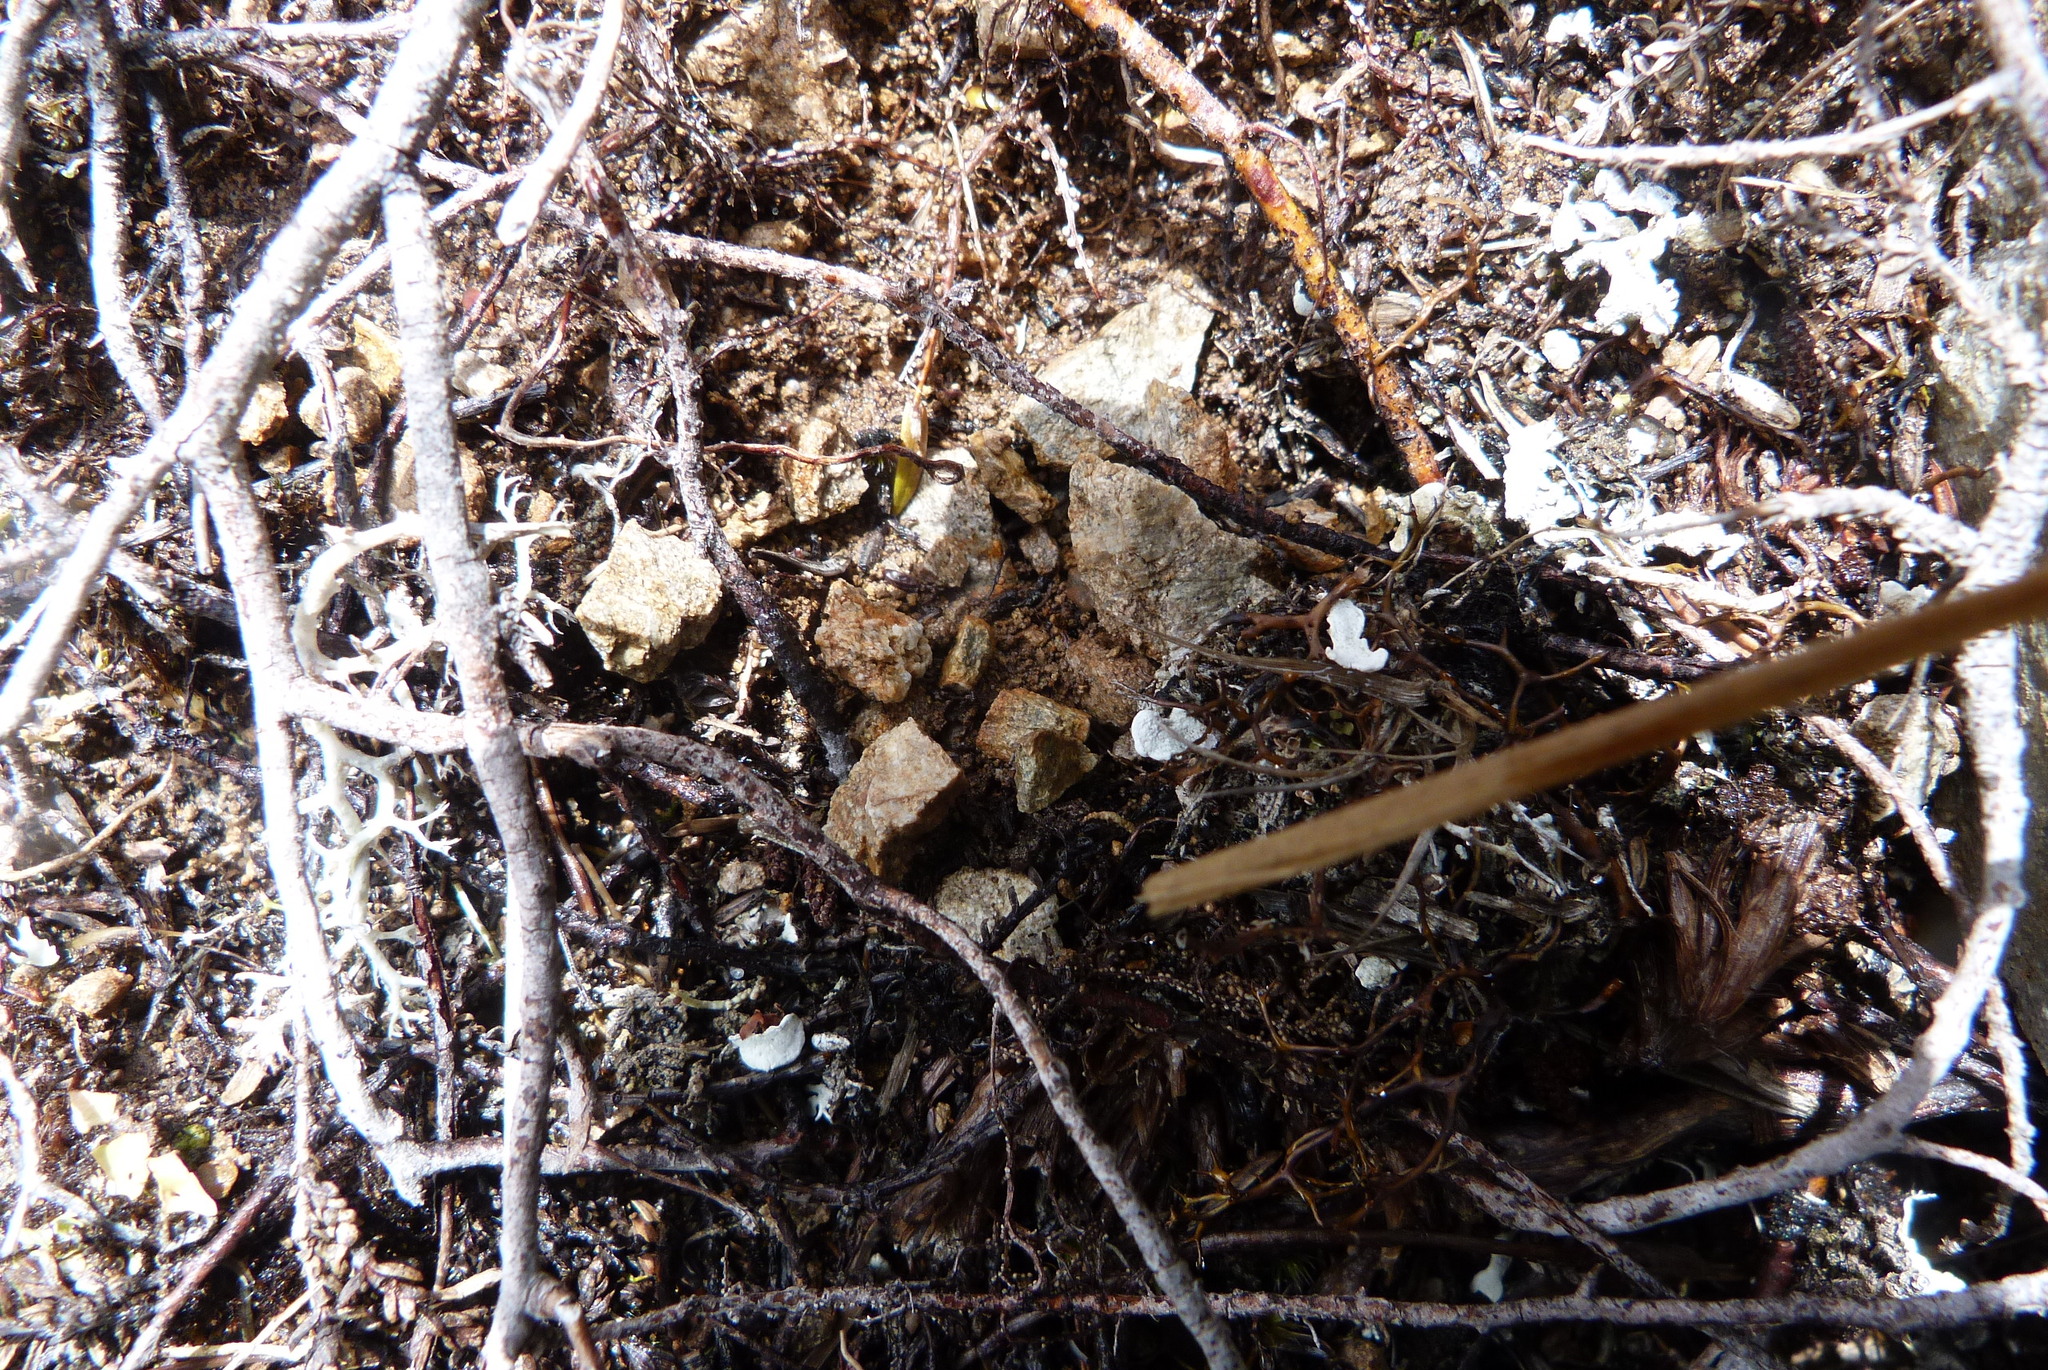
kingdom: Plantae
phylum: Tracheophyta
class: Pinopsida
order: Pinales
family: Podocarpaceae
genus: Lepidothamnus
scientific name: Lepidothamnus laxifolius
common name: Pygmy pine
